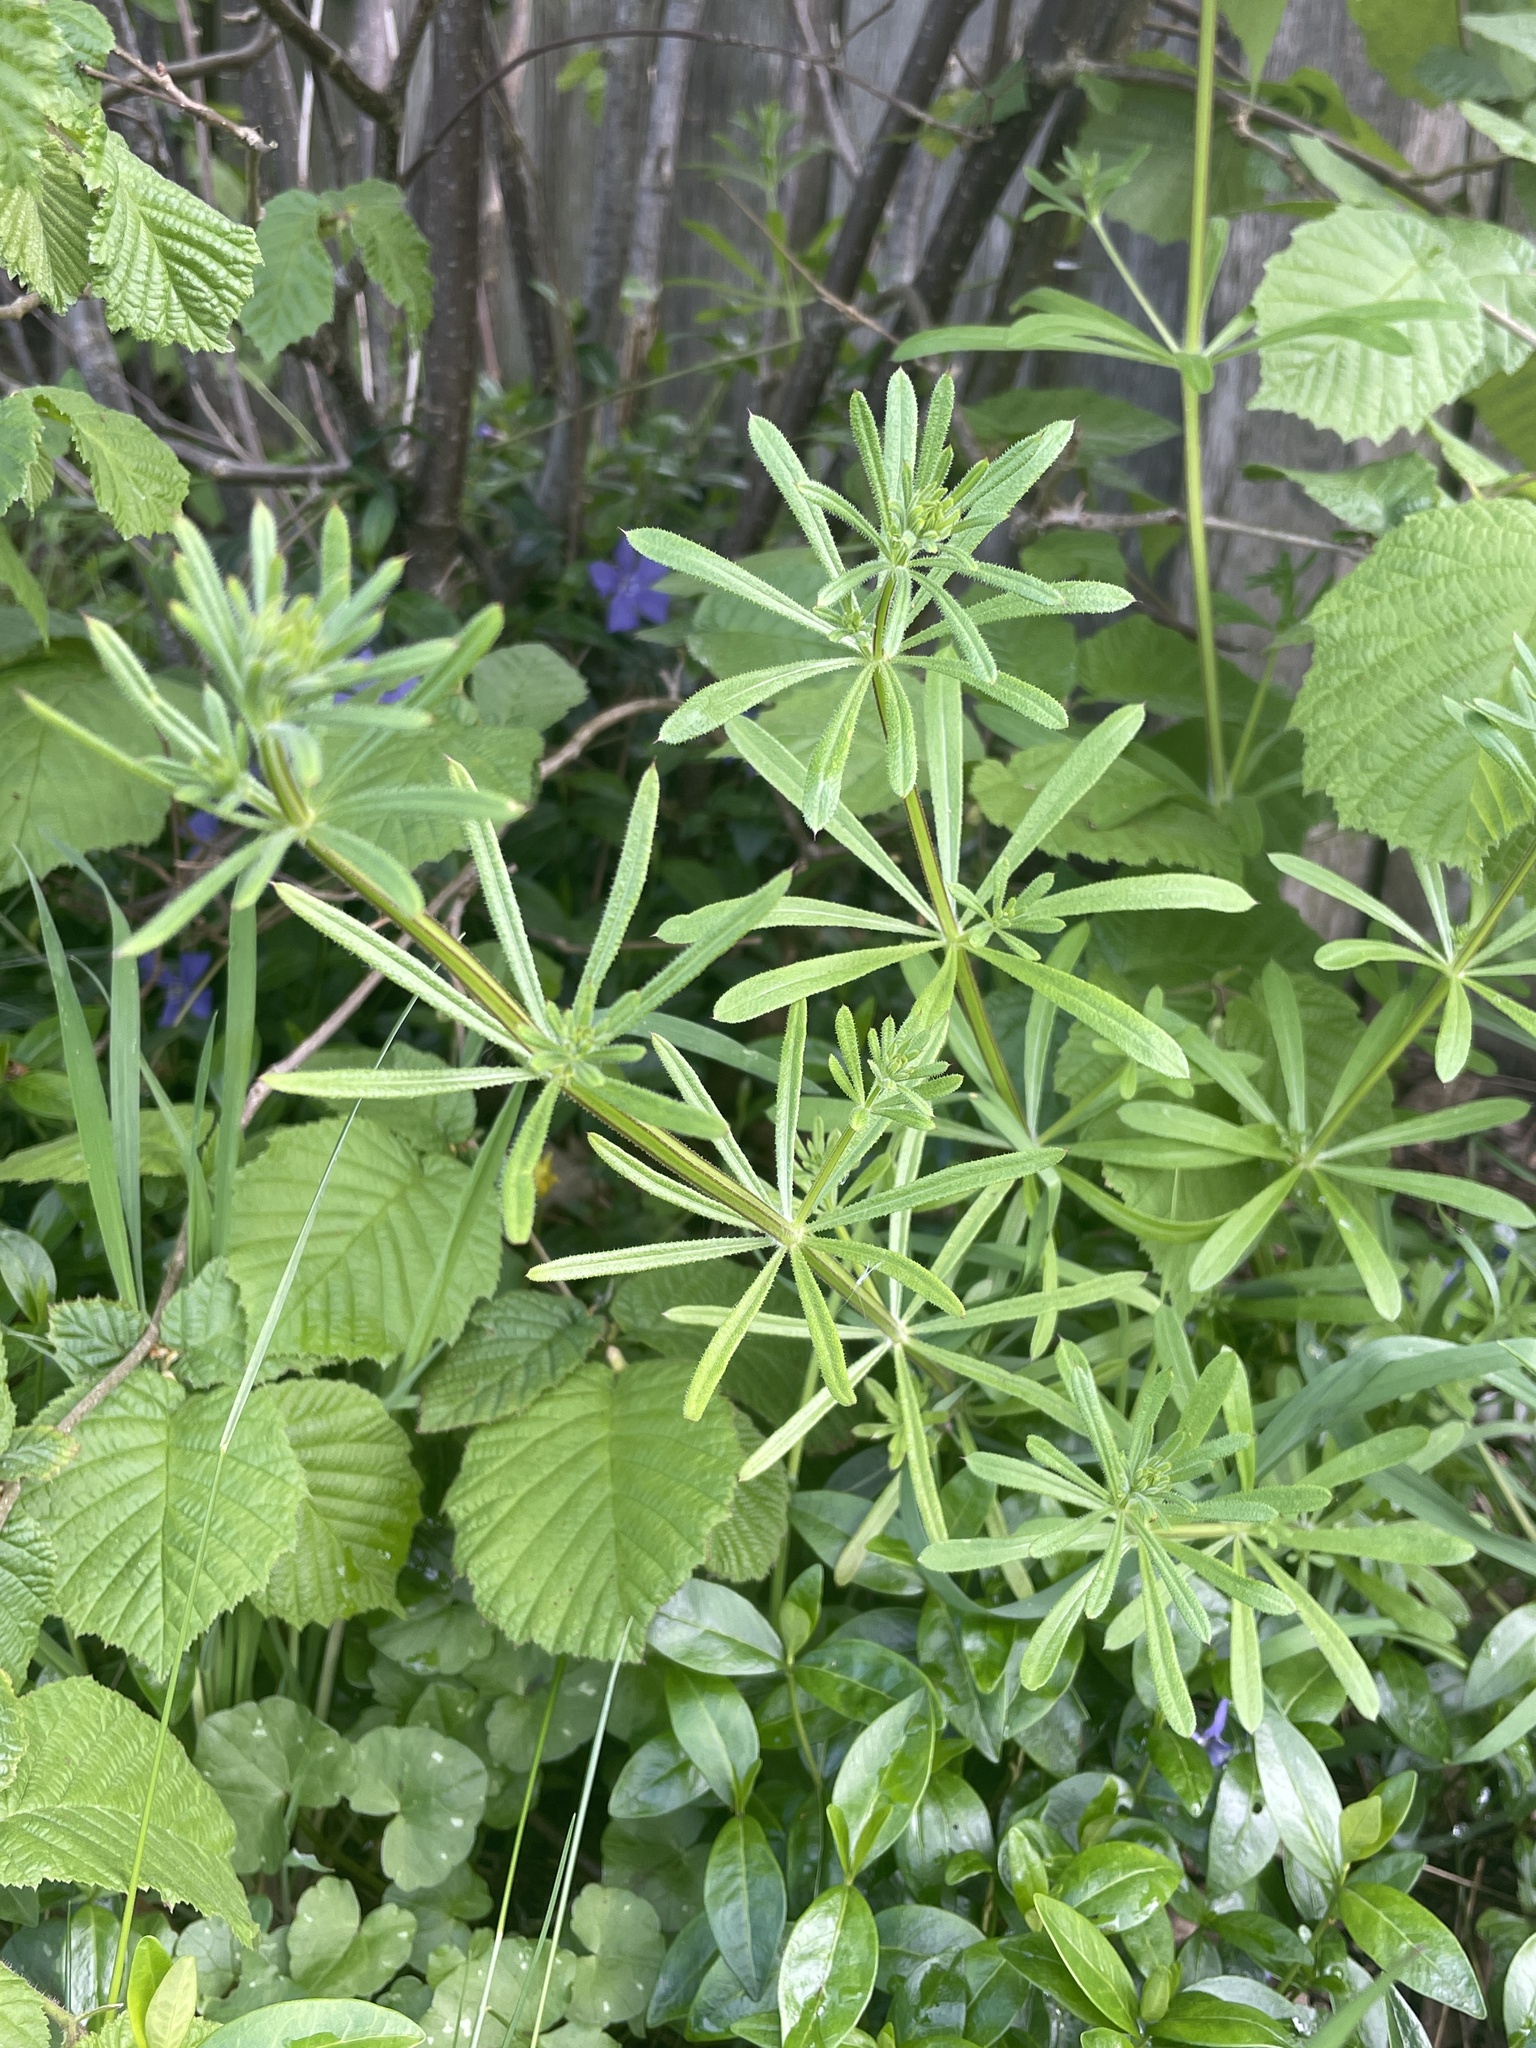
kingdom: Plantae
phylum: Tracheophyta
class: Magnoliopsida
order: Gentianales
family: Rubiaceae
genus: Galium
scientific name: Galium aparine
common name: Cleavers
